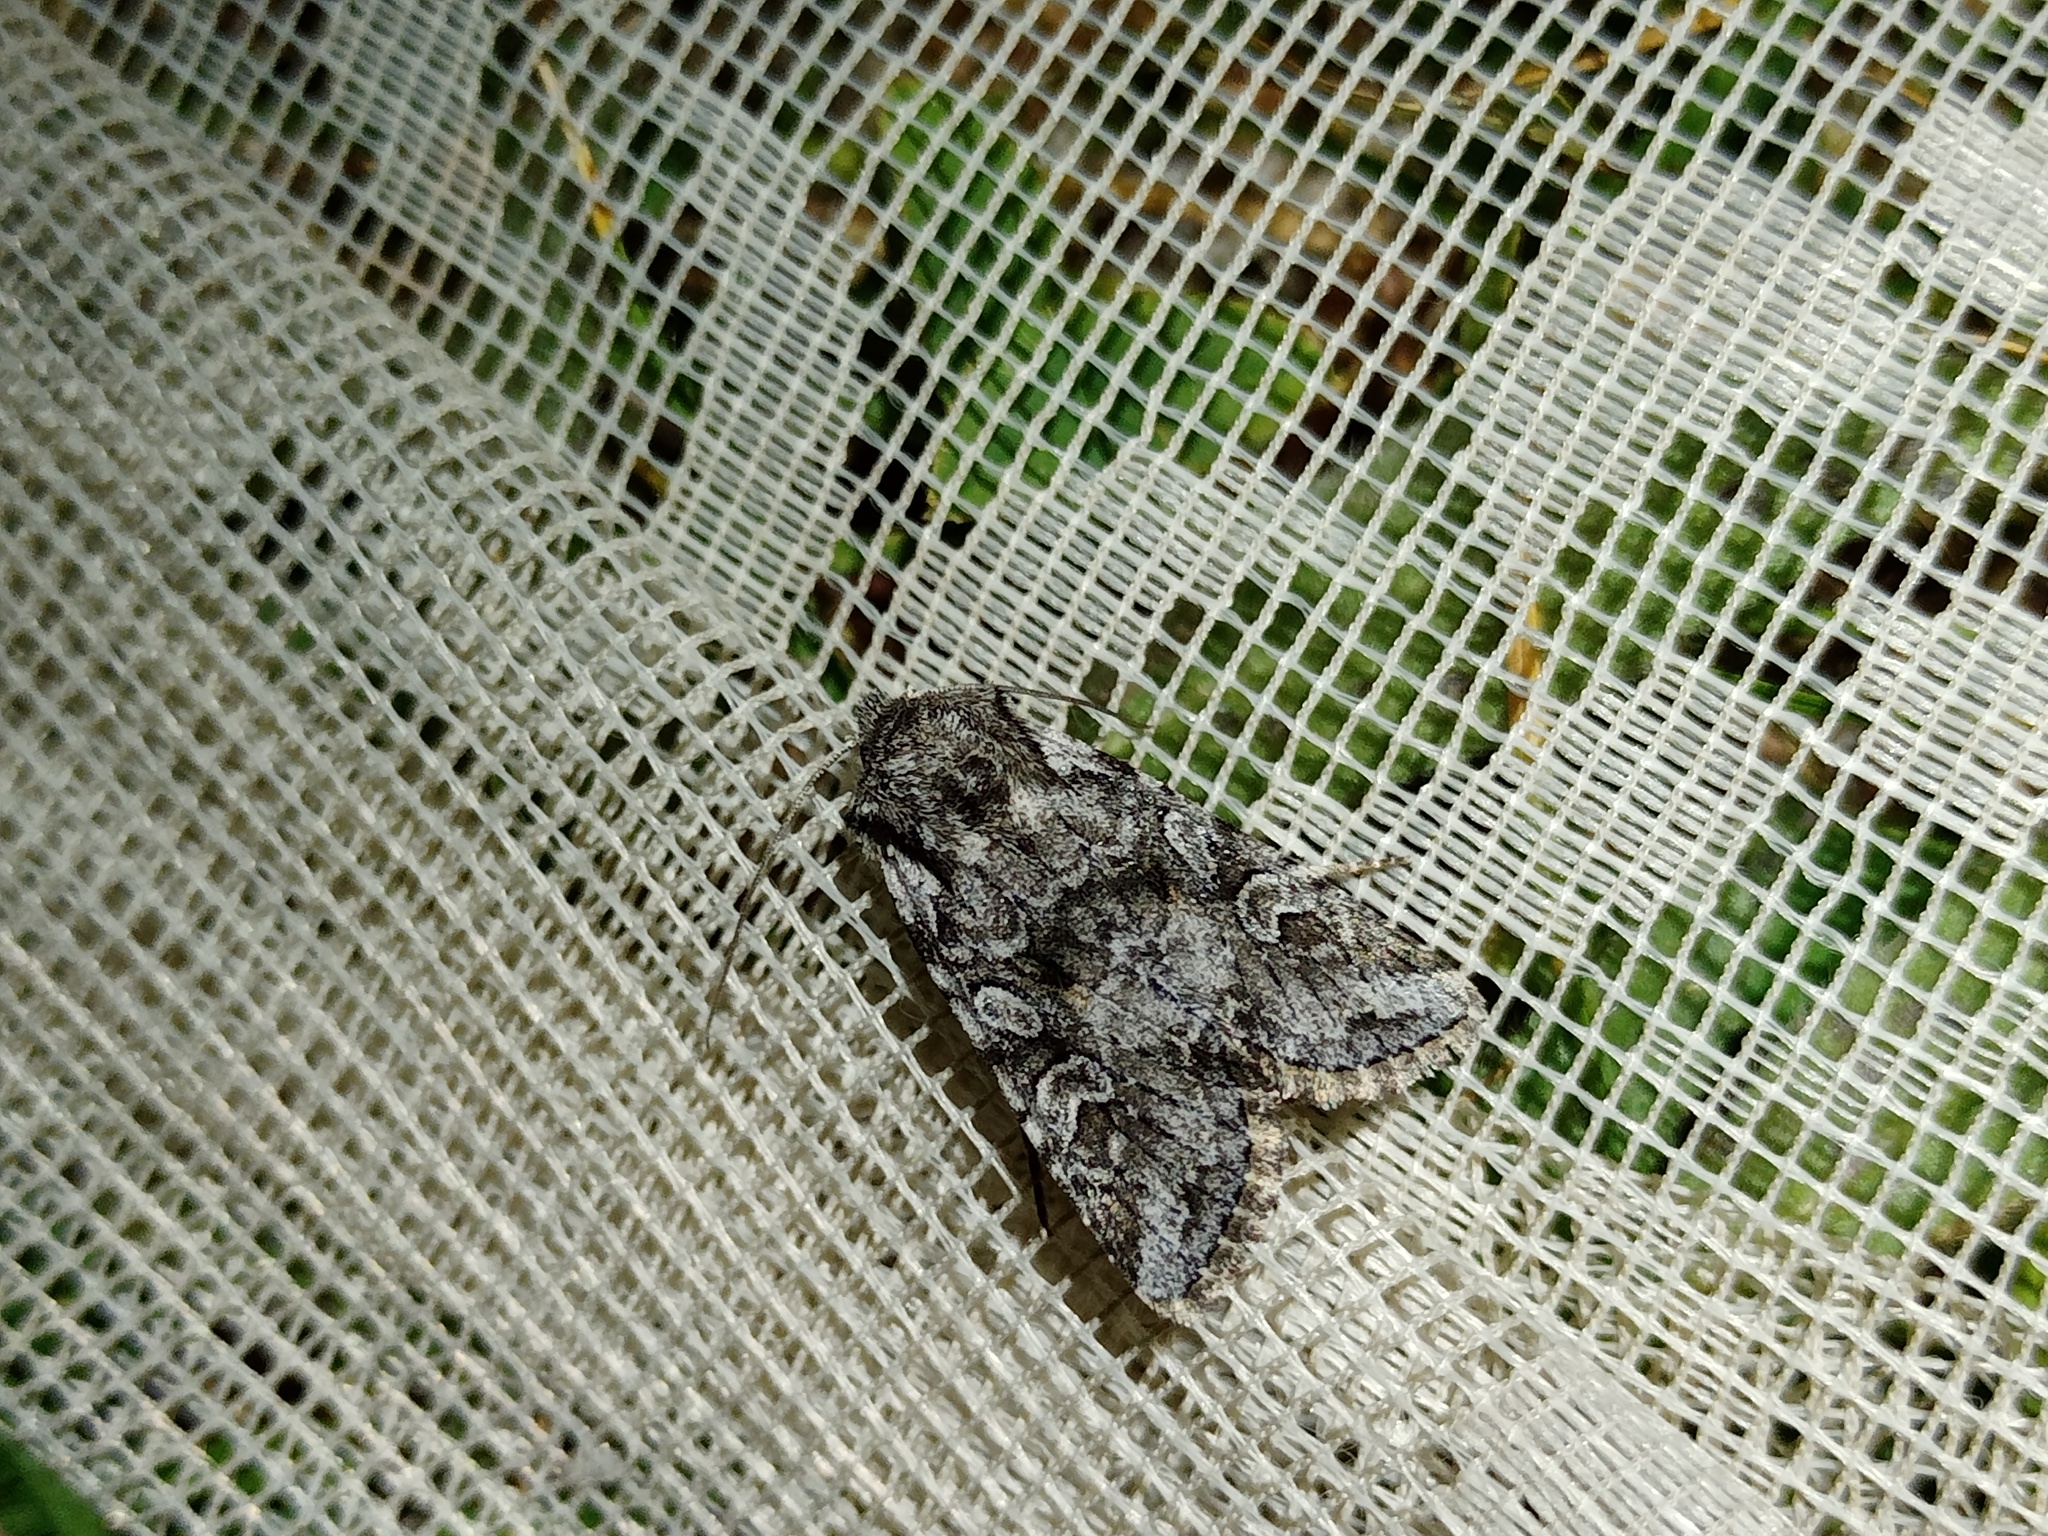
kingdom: Animalia
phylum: Arthropoda
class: Insecta
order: Lepidoptera
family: Noctuidae
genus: Lasionycta
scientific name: Lasionycta proxima
